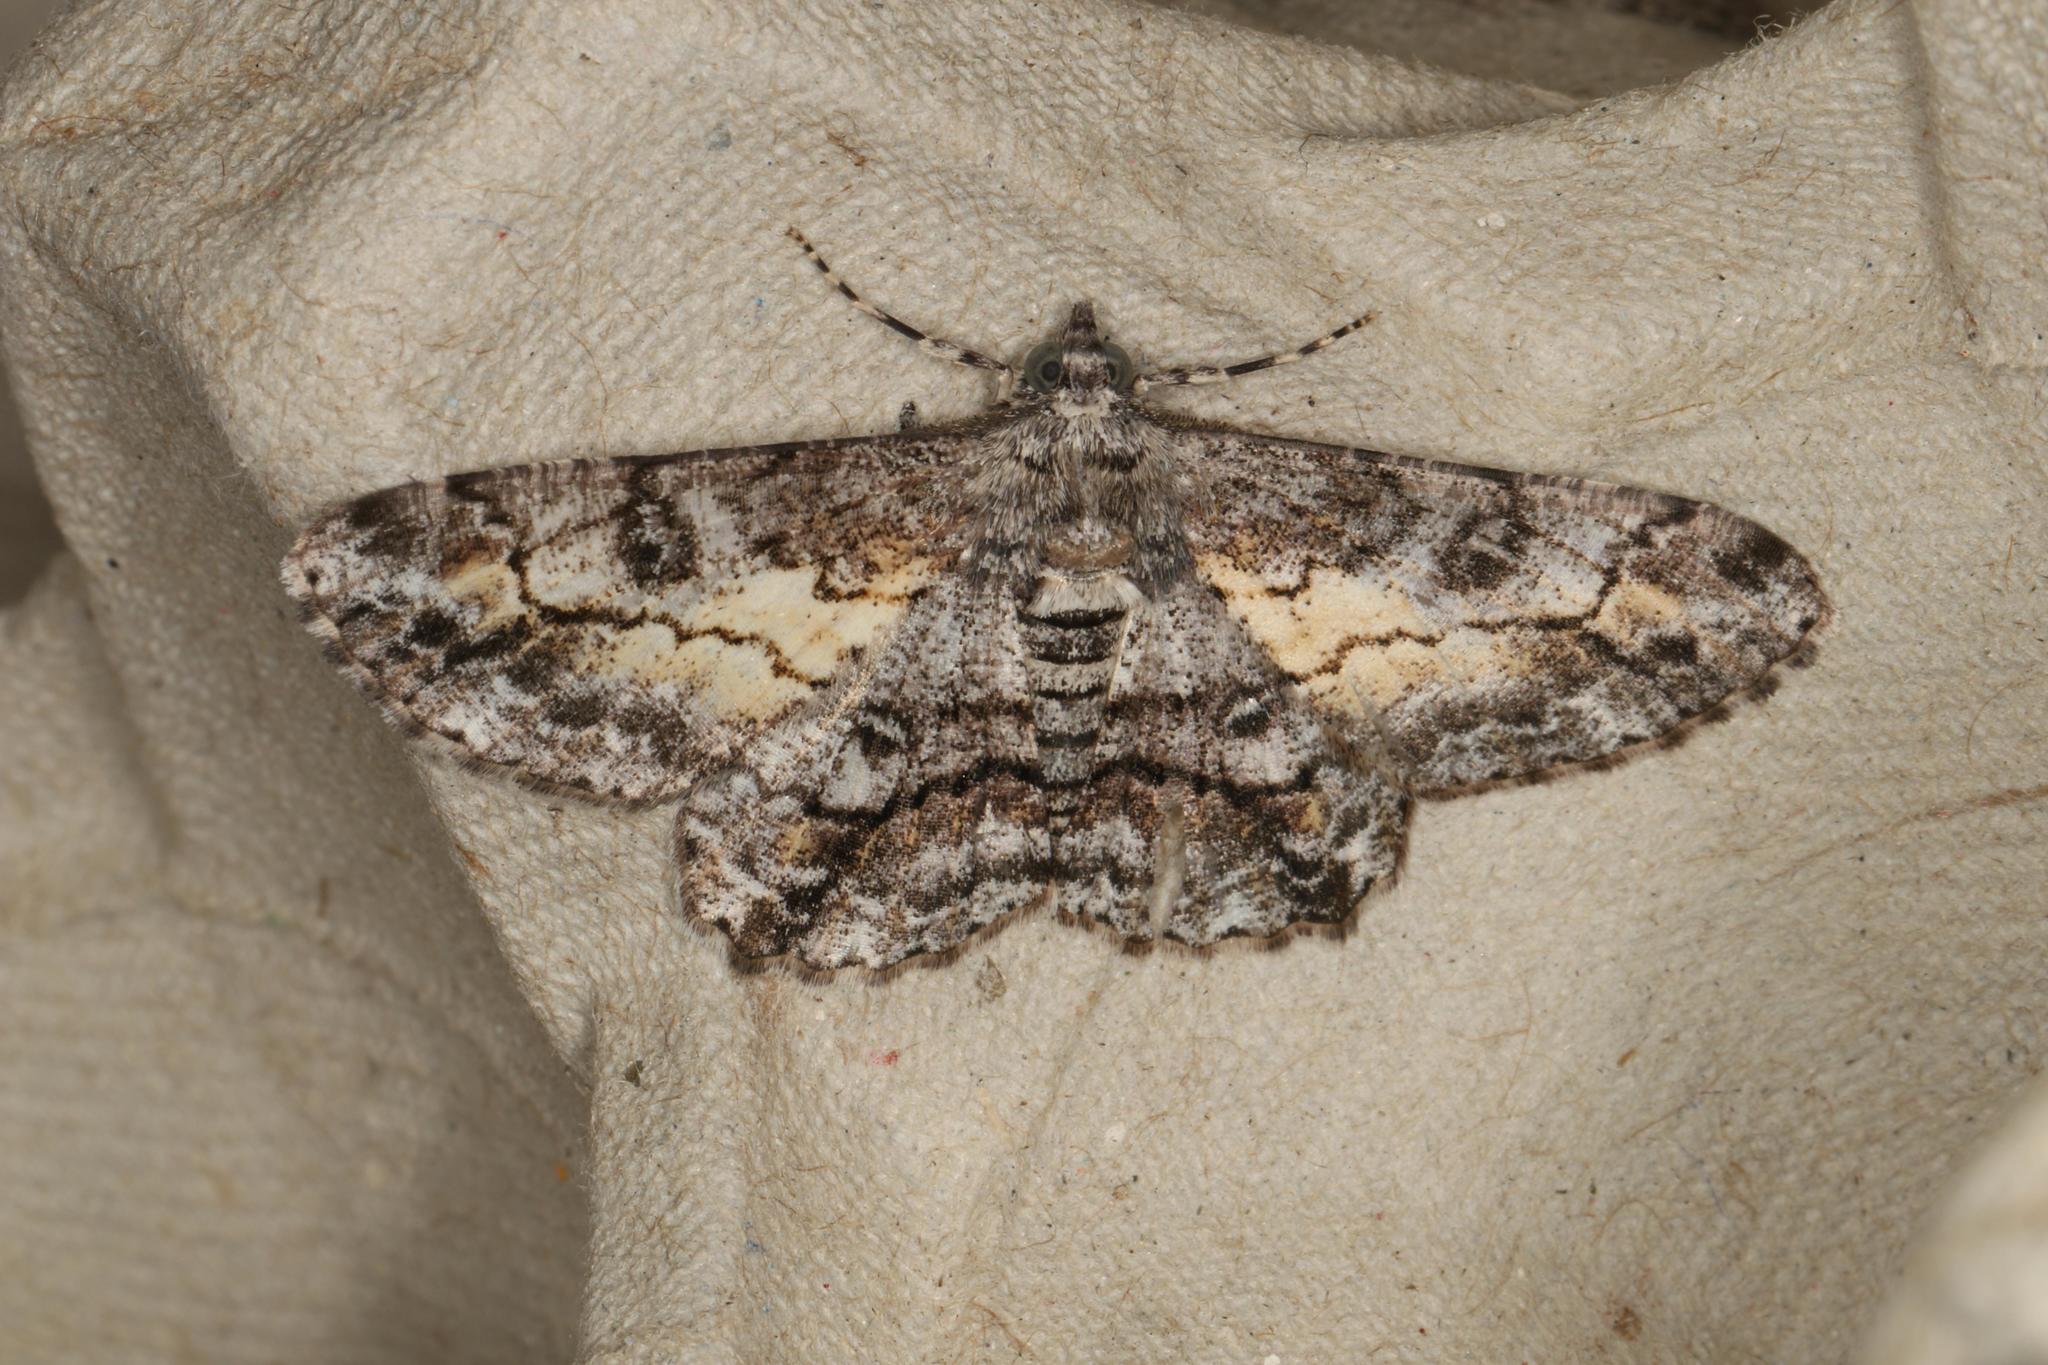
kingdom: Animalia
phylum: Arthropoda
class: Insecta
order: Lepidoptera
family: Geometridae
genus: Cleora
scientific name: Cleora injectaria
